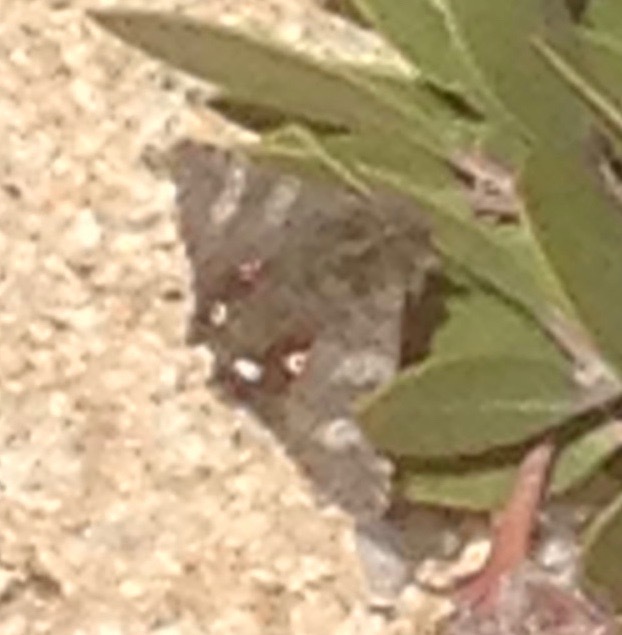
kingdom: Animalia
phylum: Arthropoda
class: Insecta
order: Lepidoptera
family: Erebidae
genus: Litocala
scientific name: Litocala sexsignata
